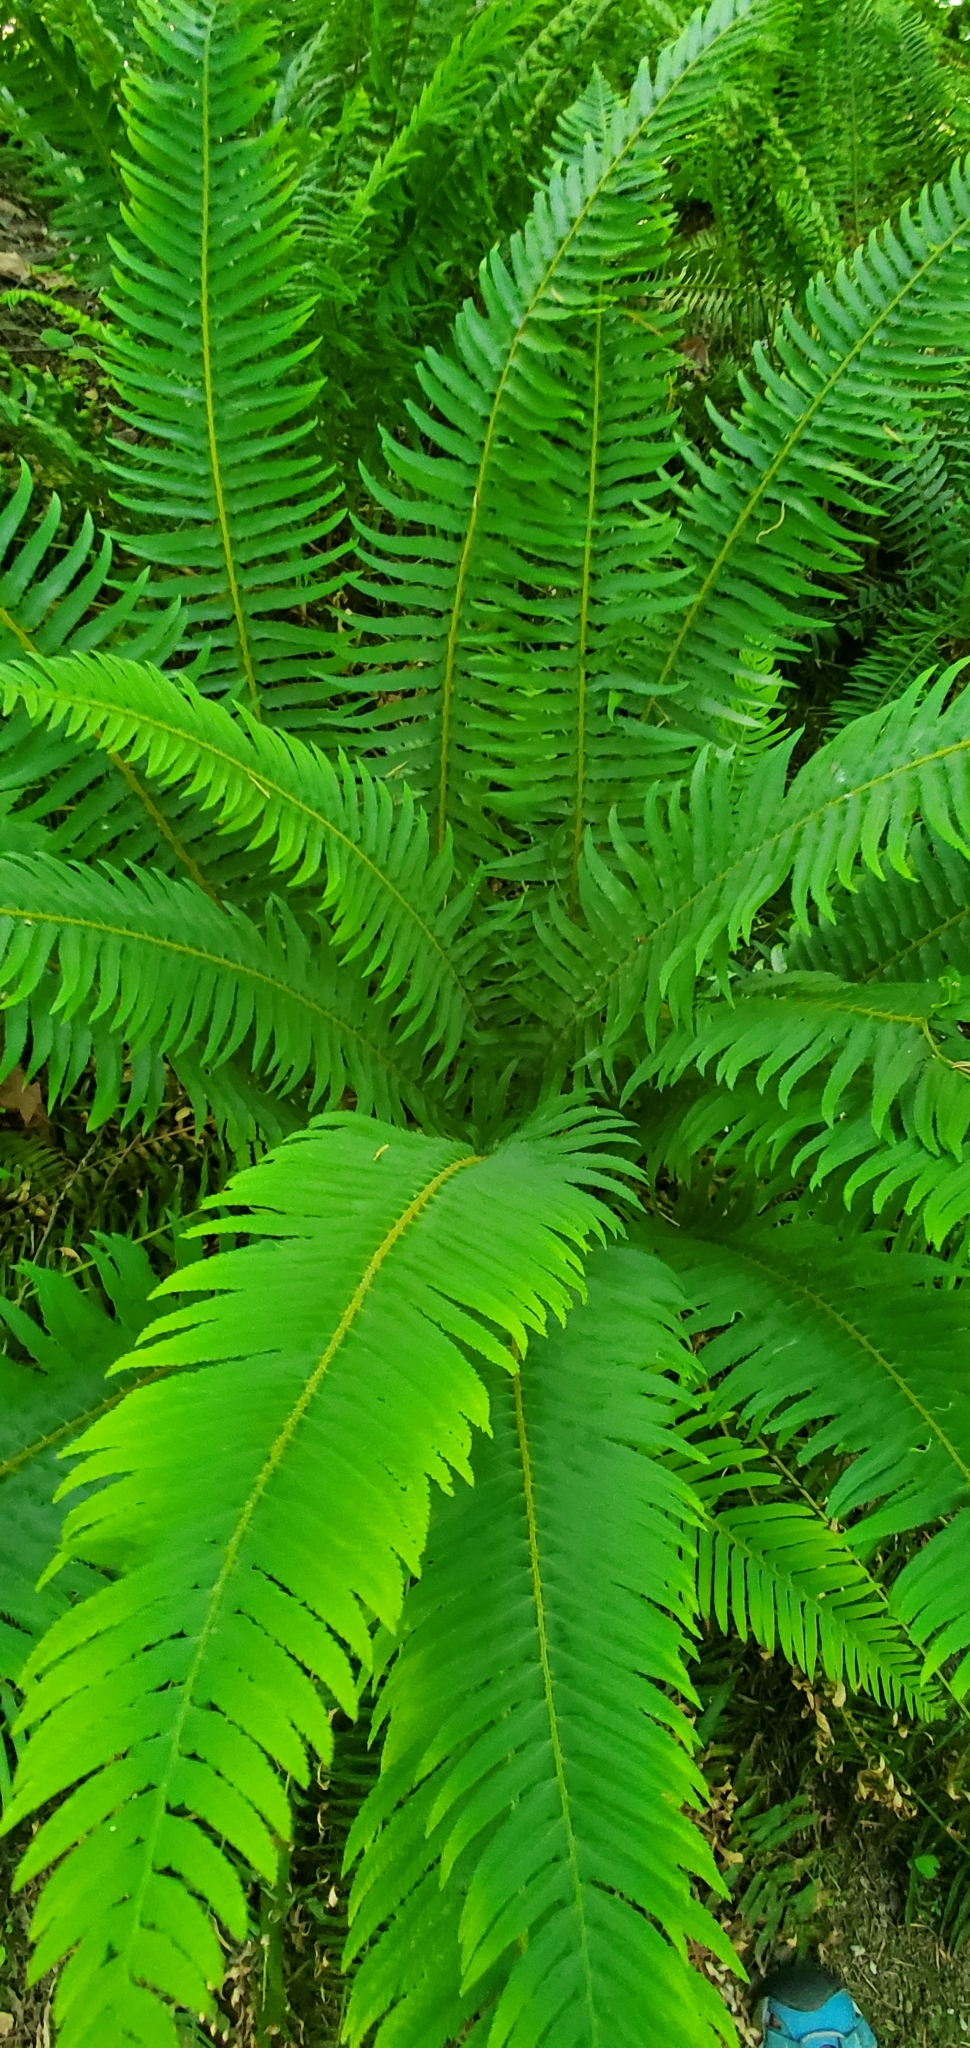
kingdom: Plantae
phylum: Tracheophyta
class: Polypodiopsida
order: Polypodiales
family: Dryopteridaceae
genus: Polystichum
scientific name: Polystichum munitum
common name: Western sword-fern
